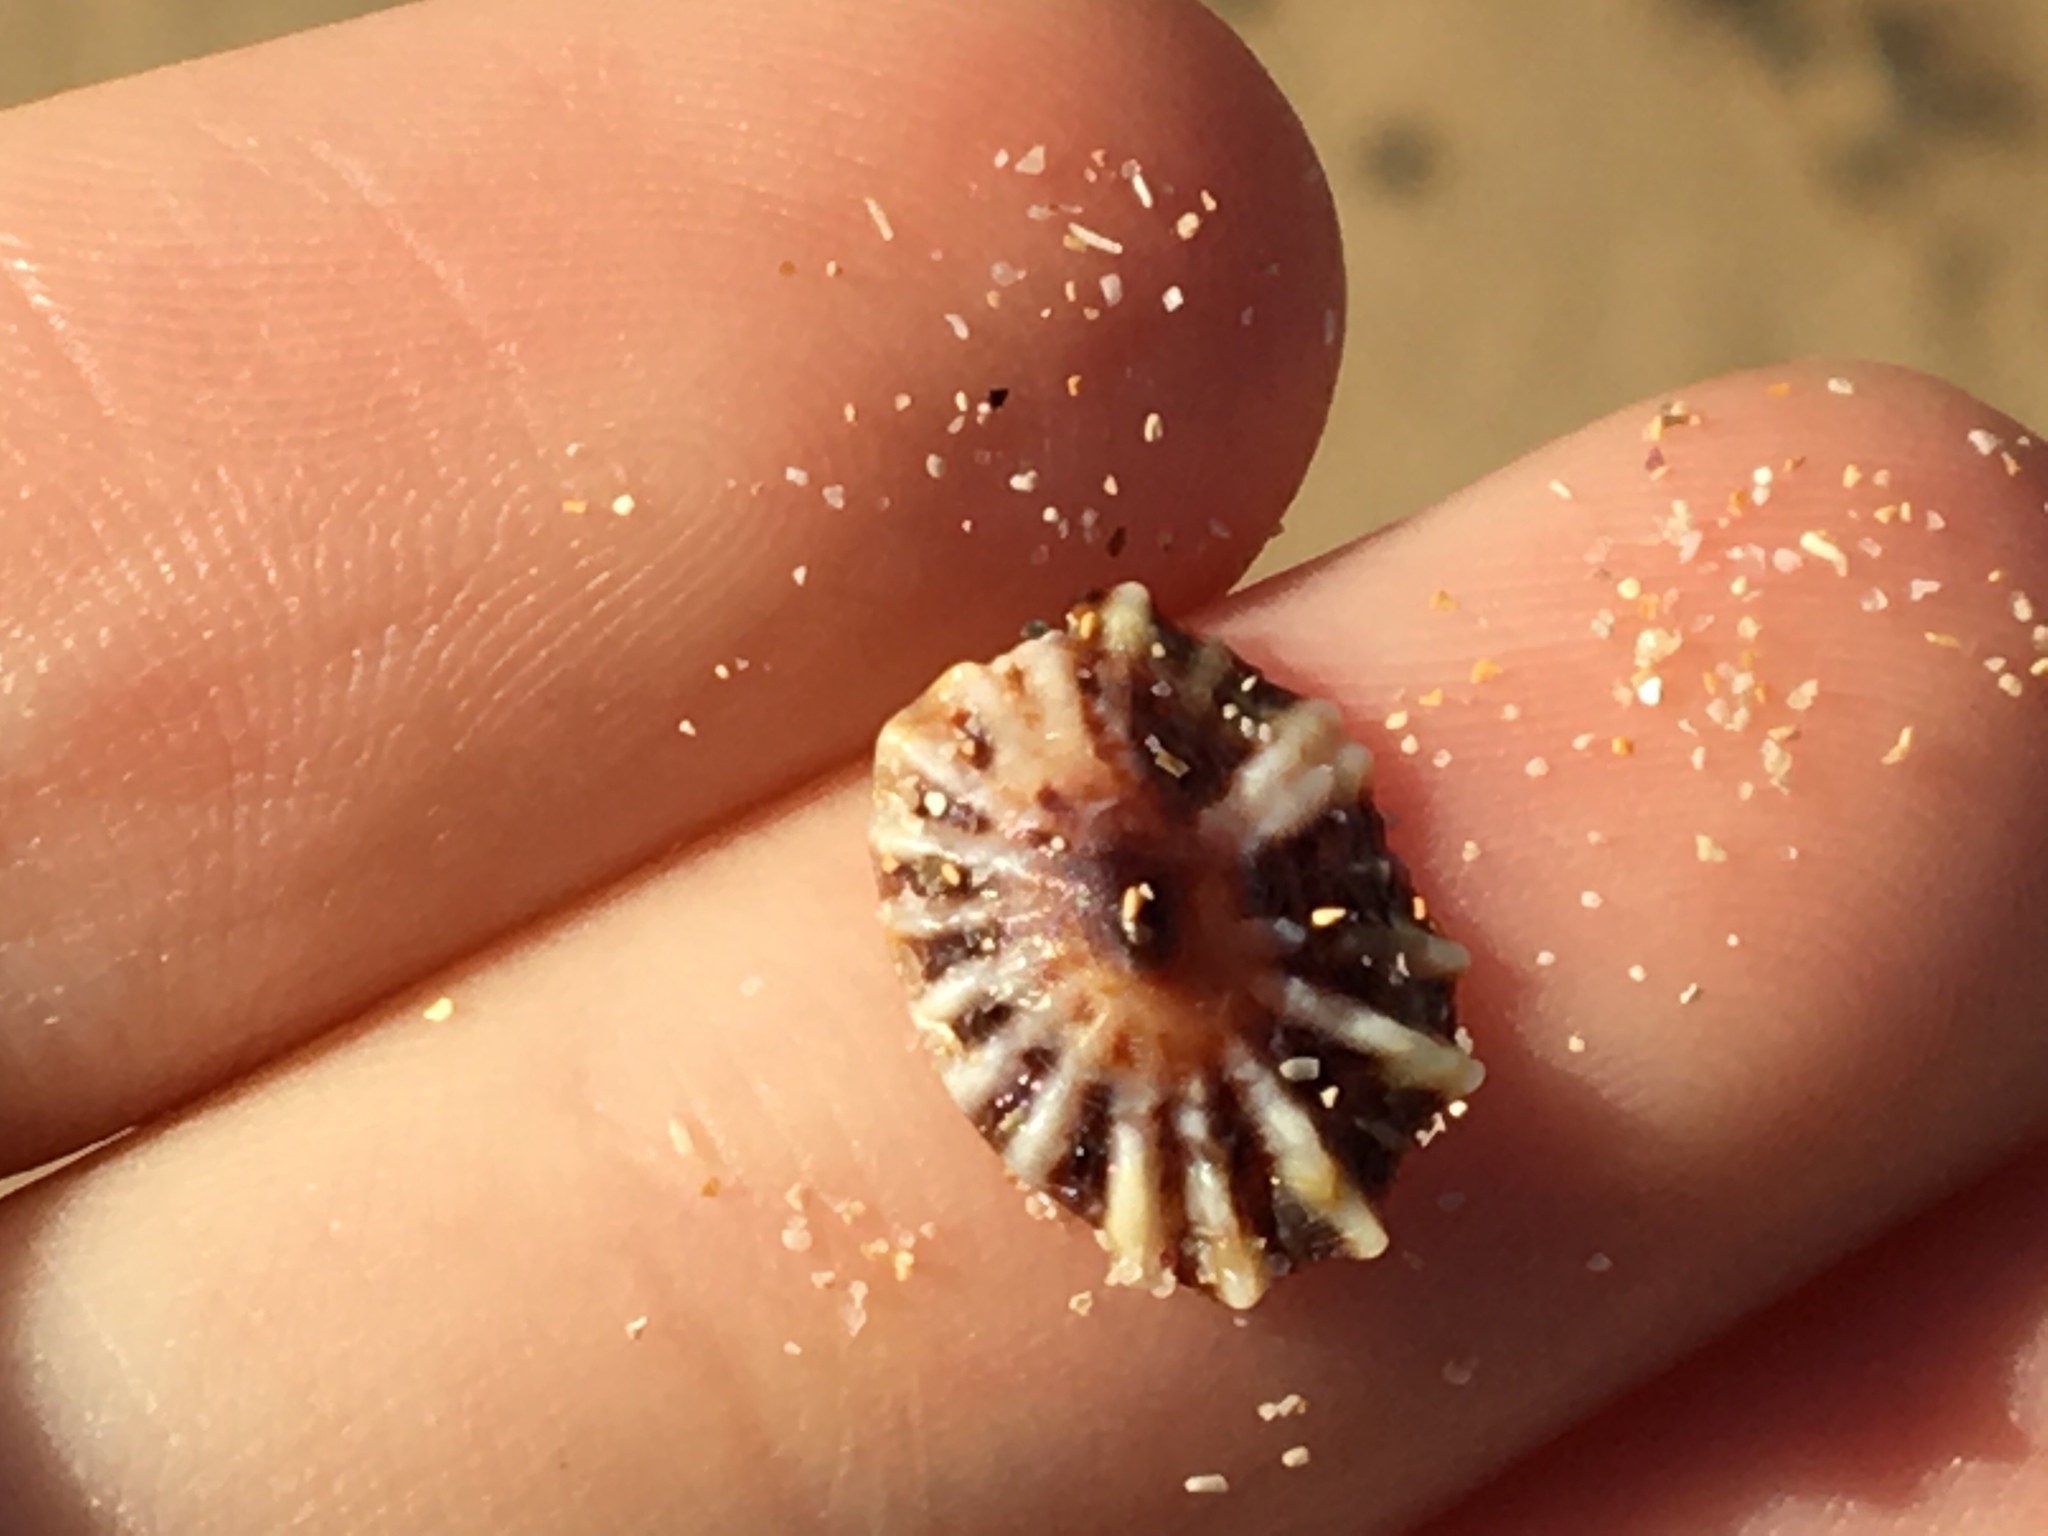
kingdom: Animalia
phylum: Mollusca
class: Gastropoda
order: Siphonariida
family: Siphonariidae
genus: Siphonaria
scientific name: Siphonaria denticulata
